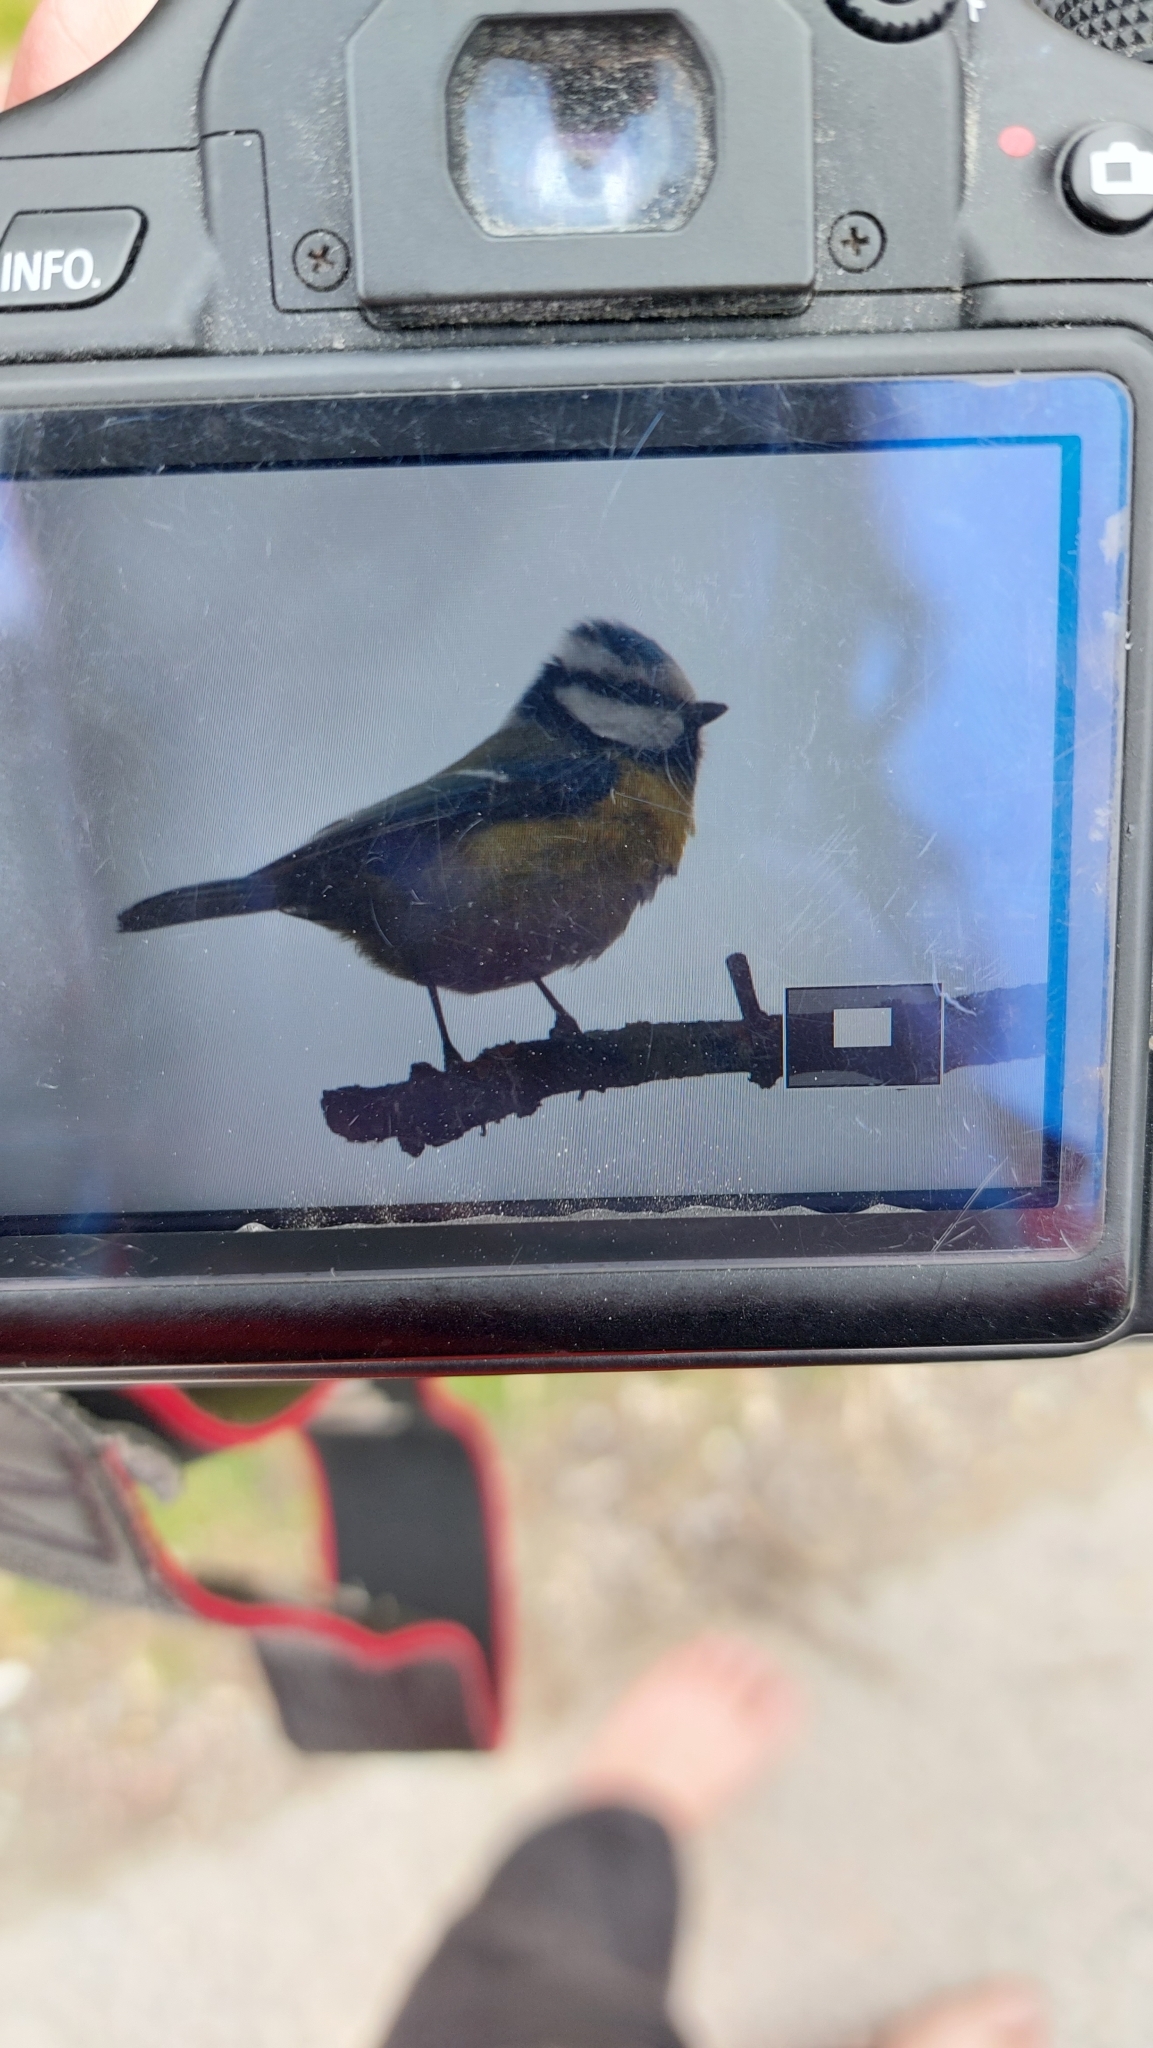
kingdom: Animalia
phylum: Chordata
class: Aves
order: Passeriformes
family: Paridae
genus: Cyanistes
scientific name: Cyanistes caeruleus
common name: Eurasian blue tit
